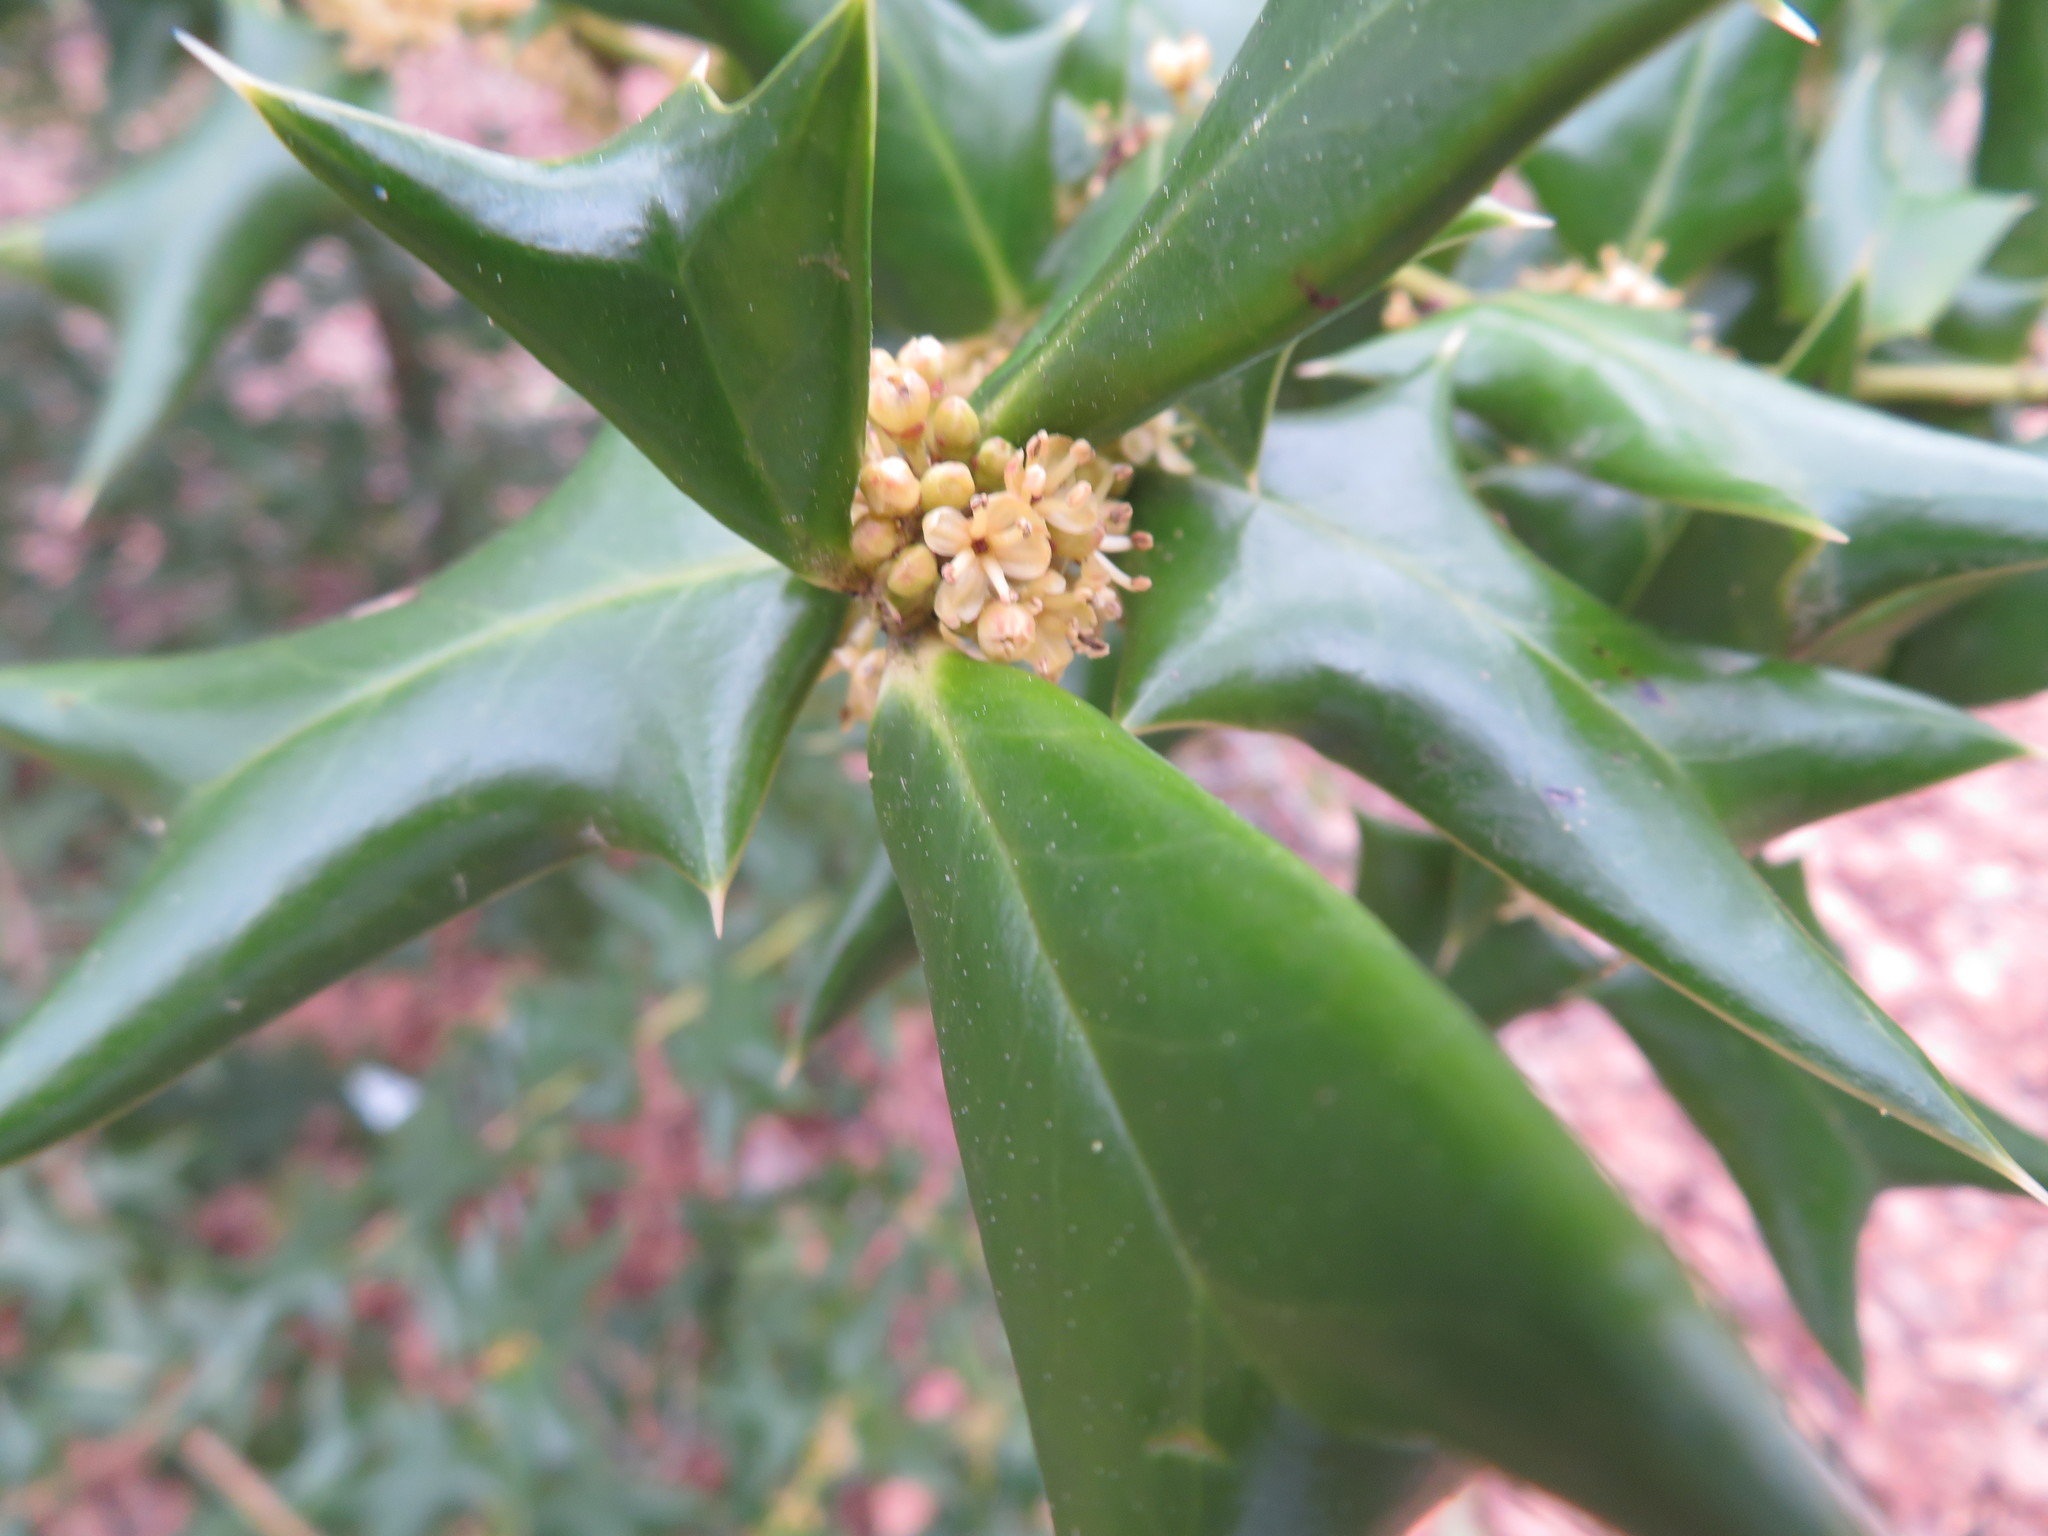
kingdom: Plantae
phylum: Tracheophyta
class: Magnoliopsida
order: Aquifoliales
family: Aquifoliaceae
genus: Ilex
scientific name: Ilex cornuta
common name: Chinese holly
